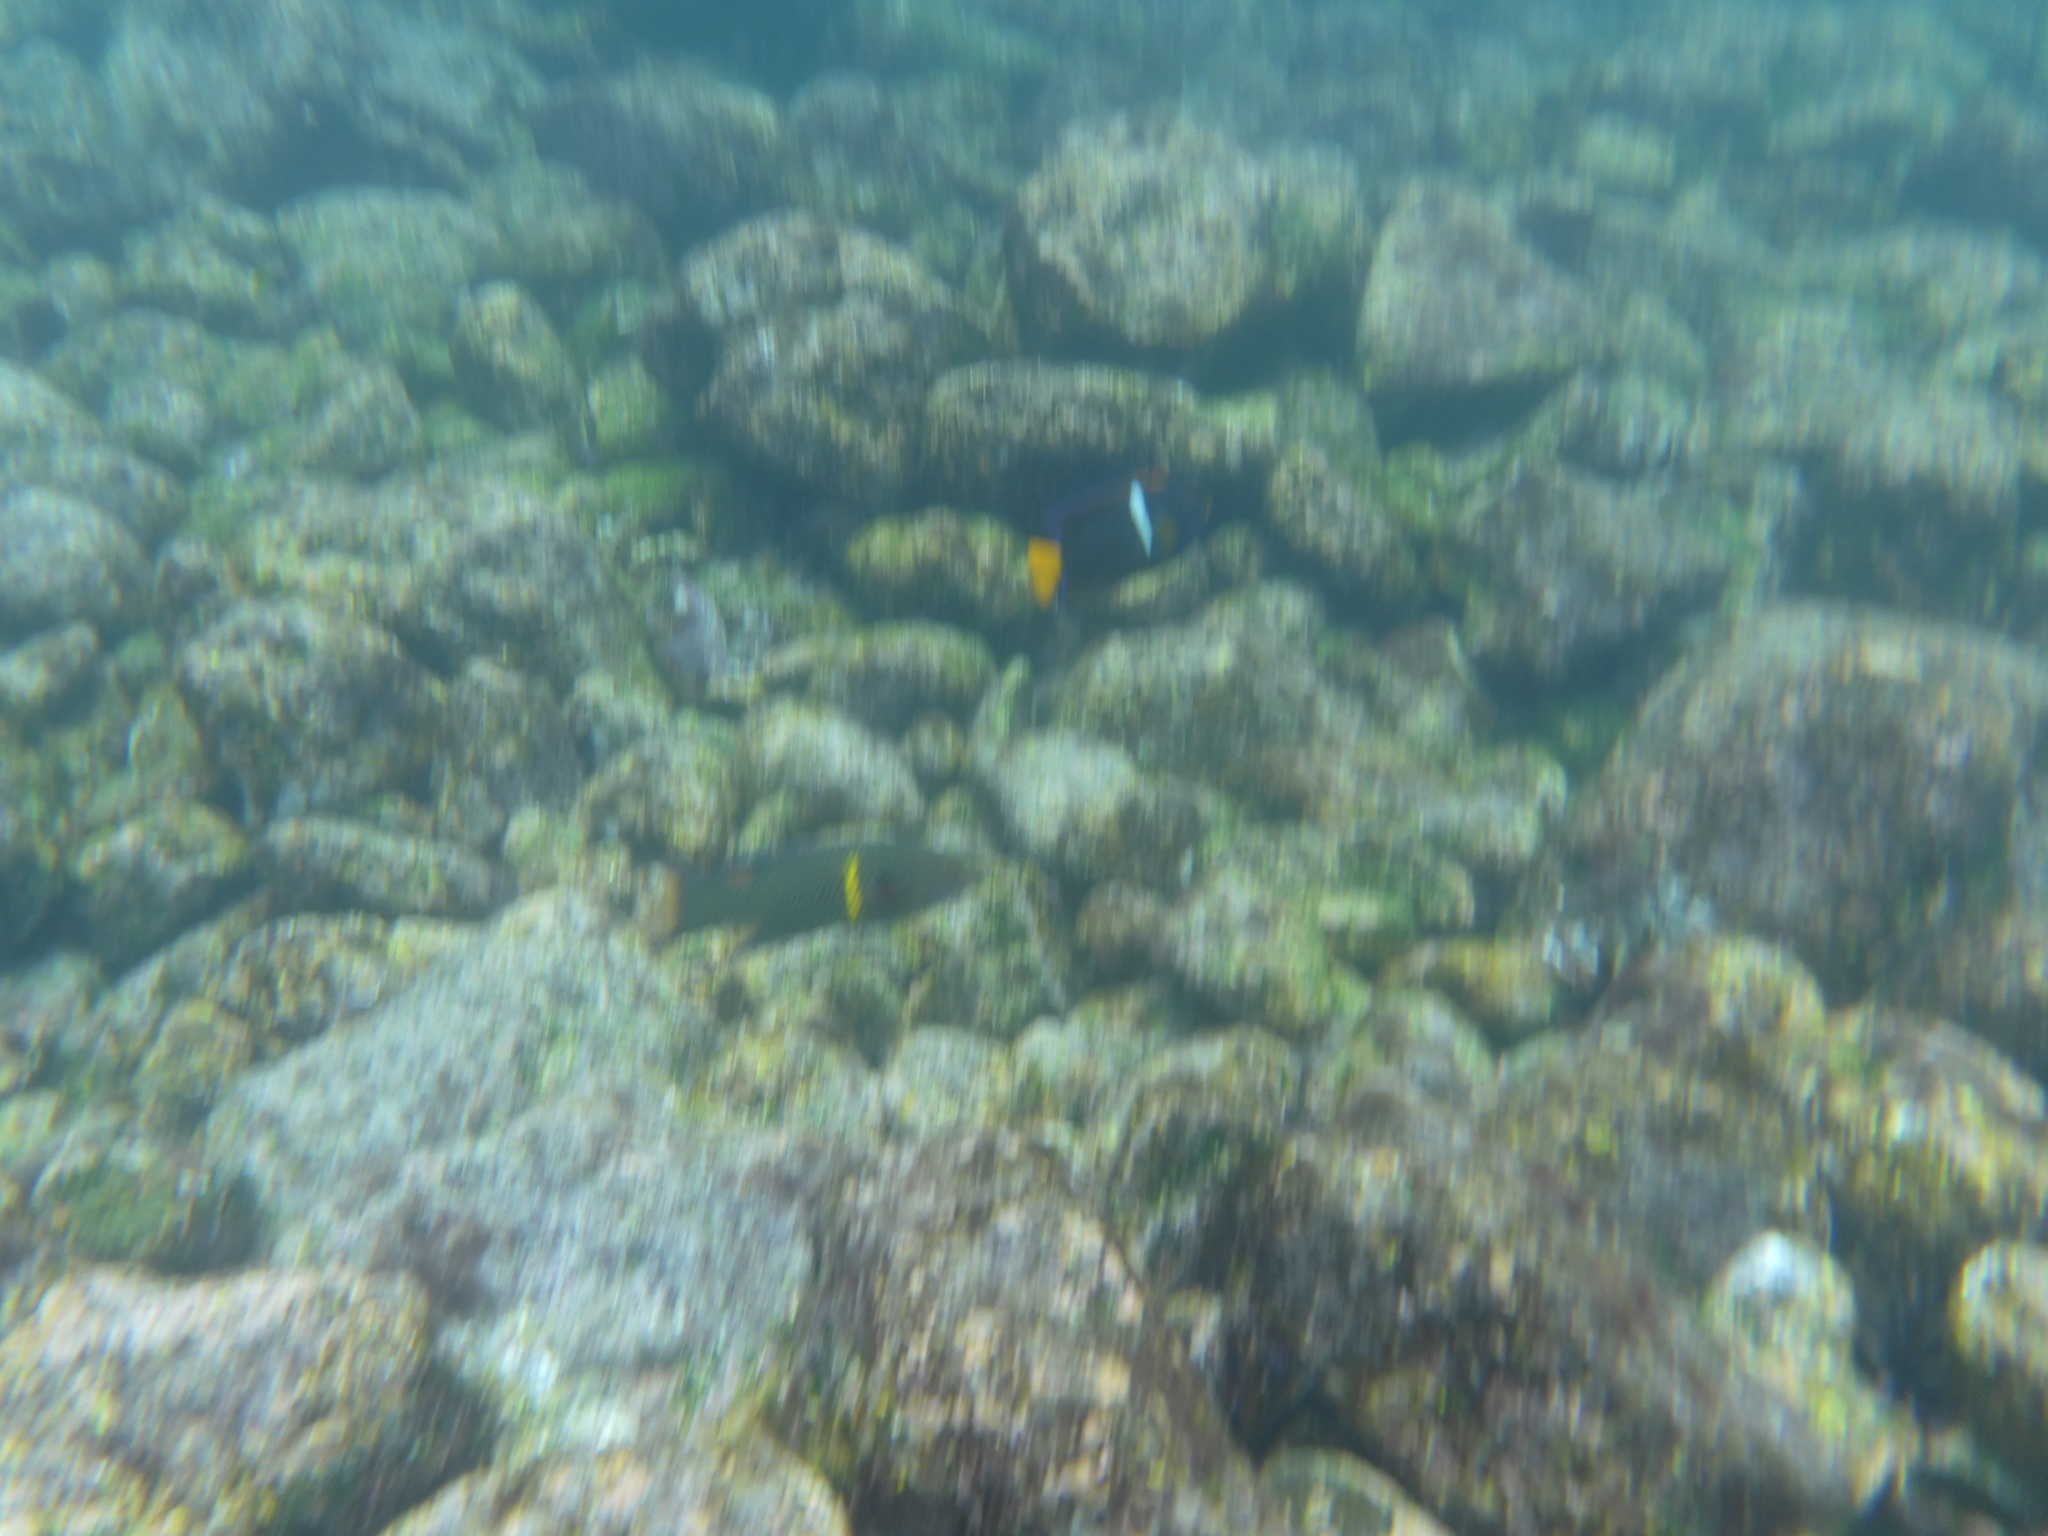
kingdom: Animalia
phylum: Chordata
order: Perciformes
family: Pomacanthidae
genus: Holacanthus
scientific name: Holacanthus passer
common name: King angelfish
